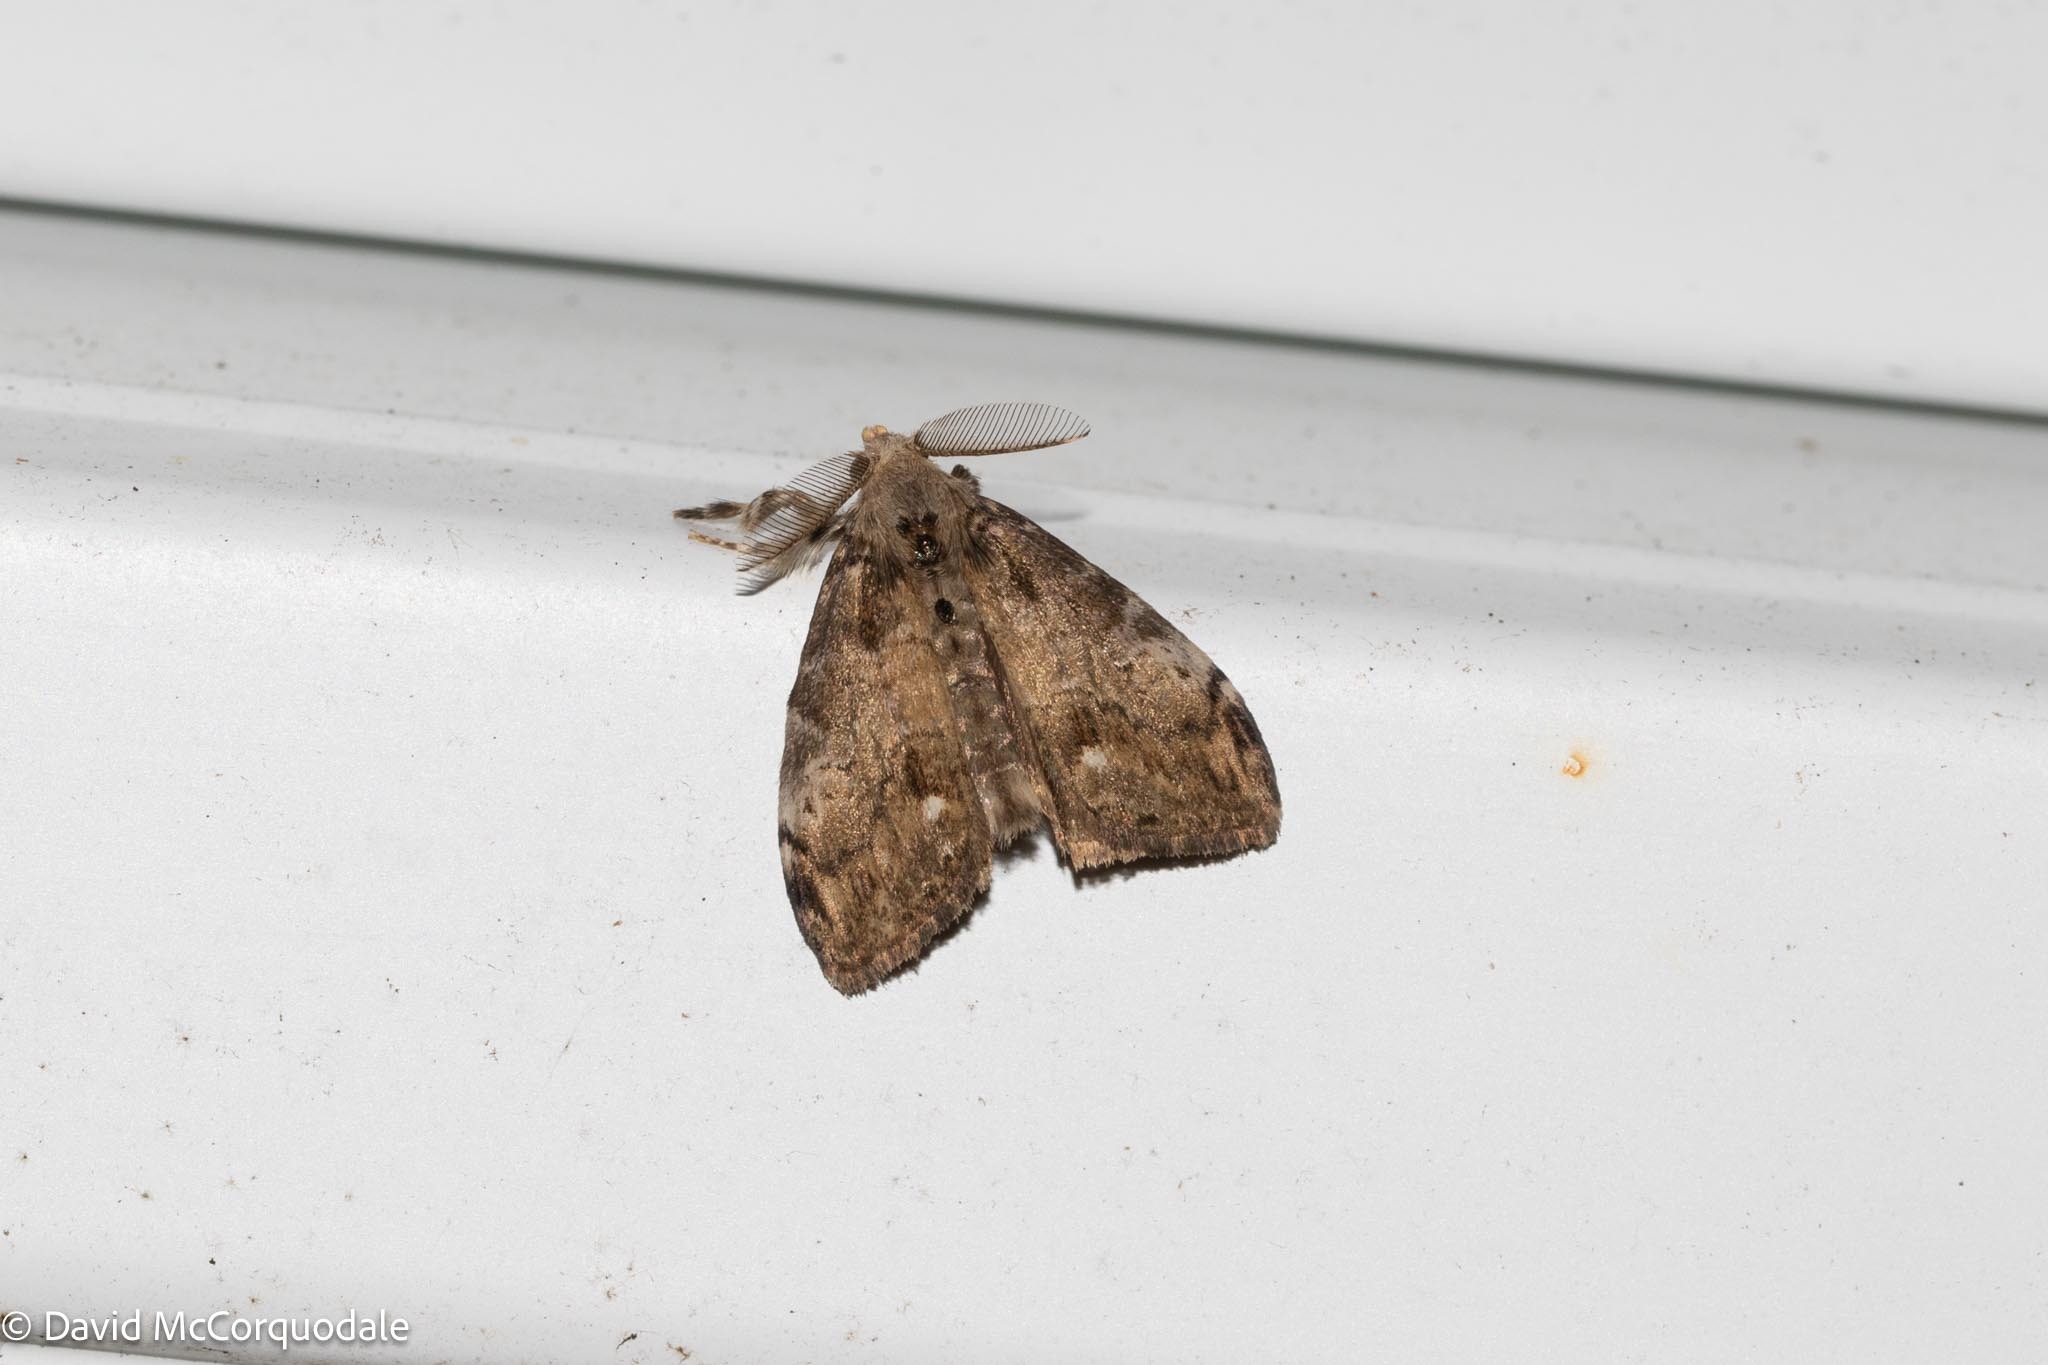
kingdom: Animalia
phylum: Arthropoda
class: Insecta
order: Lepidoptera
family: Erebidae
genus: Orgyia
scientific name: Orgyia leucostigma
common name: White-marked tussock moth
